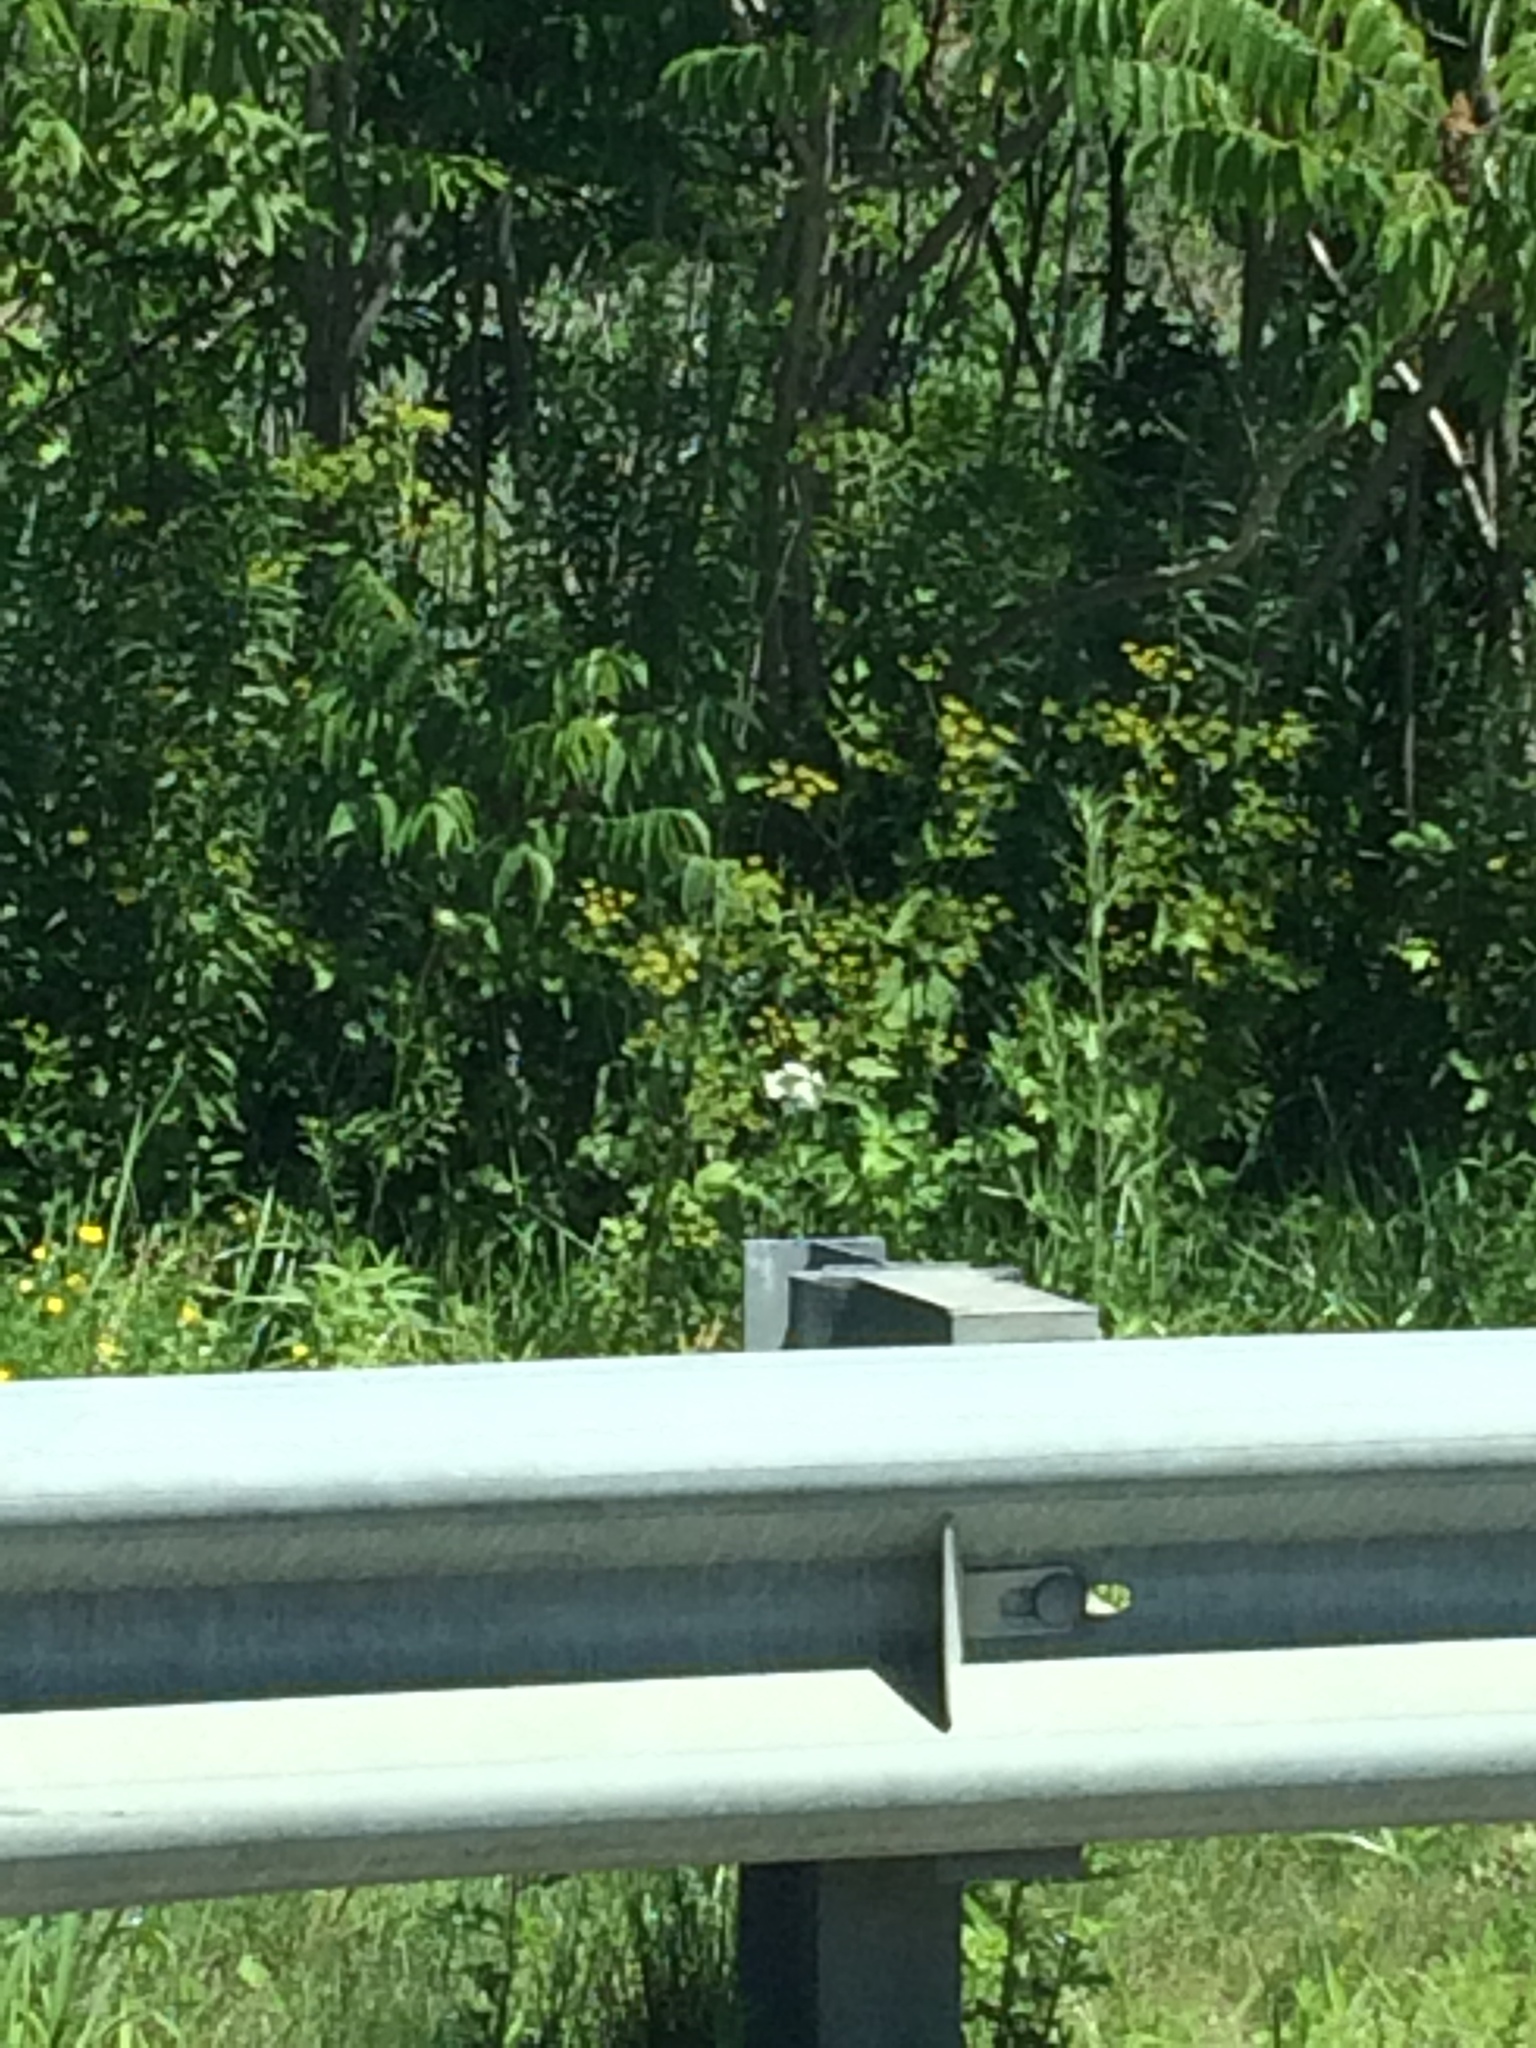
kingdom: Plantae
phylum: Tracheophyta
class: Magnoliopsida
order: Apiales
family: Apiaceae
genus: Pastinaca
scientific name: Pastinaca sativa
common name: Wild parsnip
